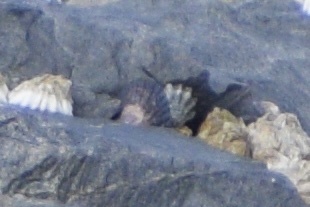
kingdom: Animalia
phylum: Mollusca
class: Bivalvia
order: Mytilida
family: Mytilidae
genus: Perumytilus
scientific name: Perumytilus purpuratus
